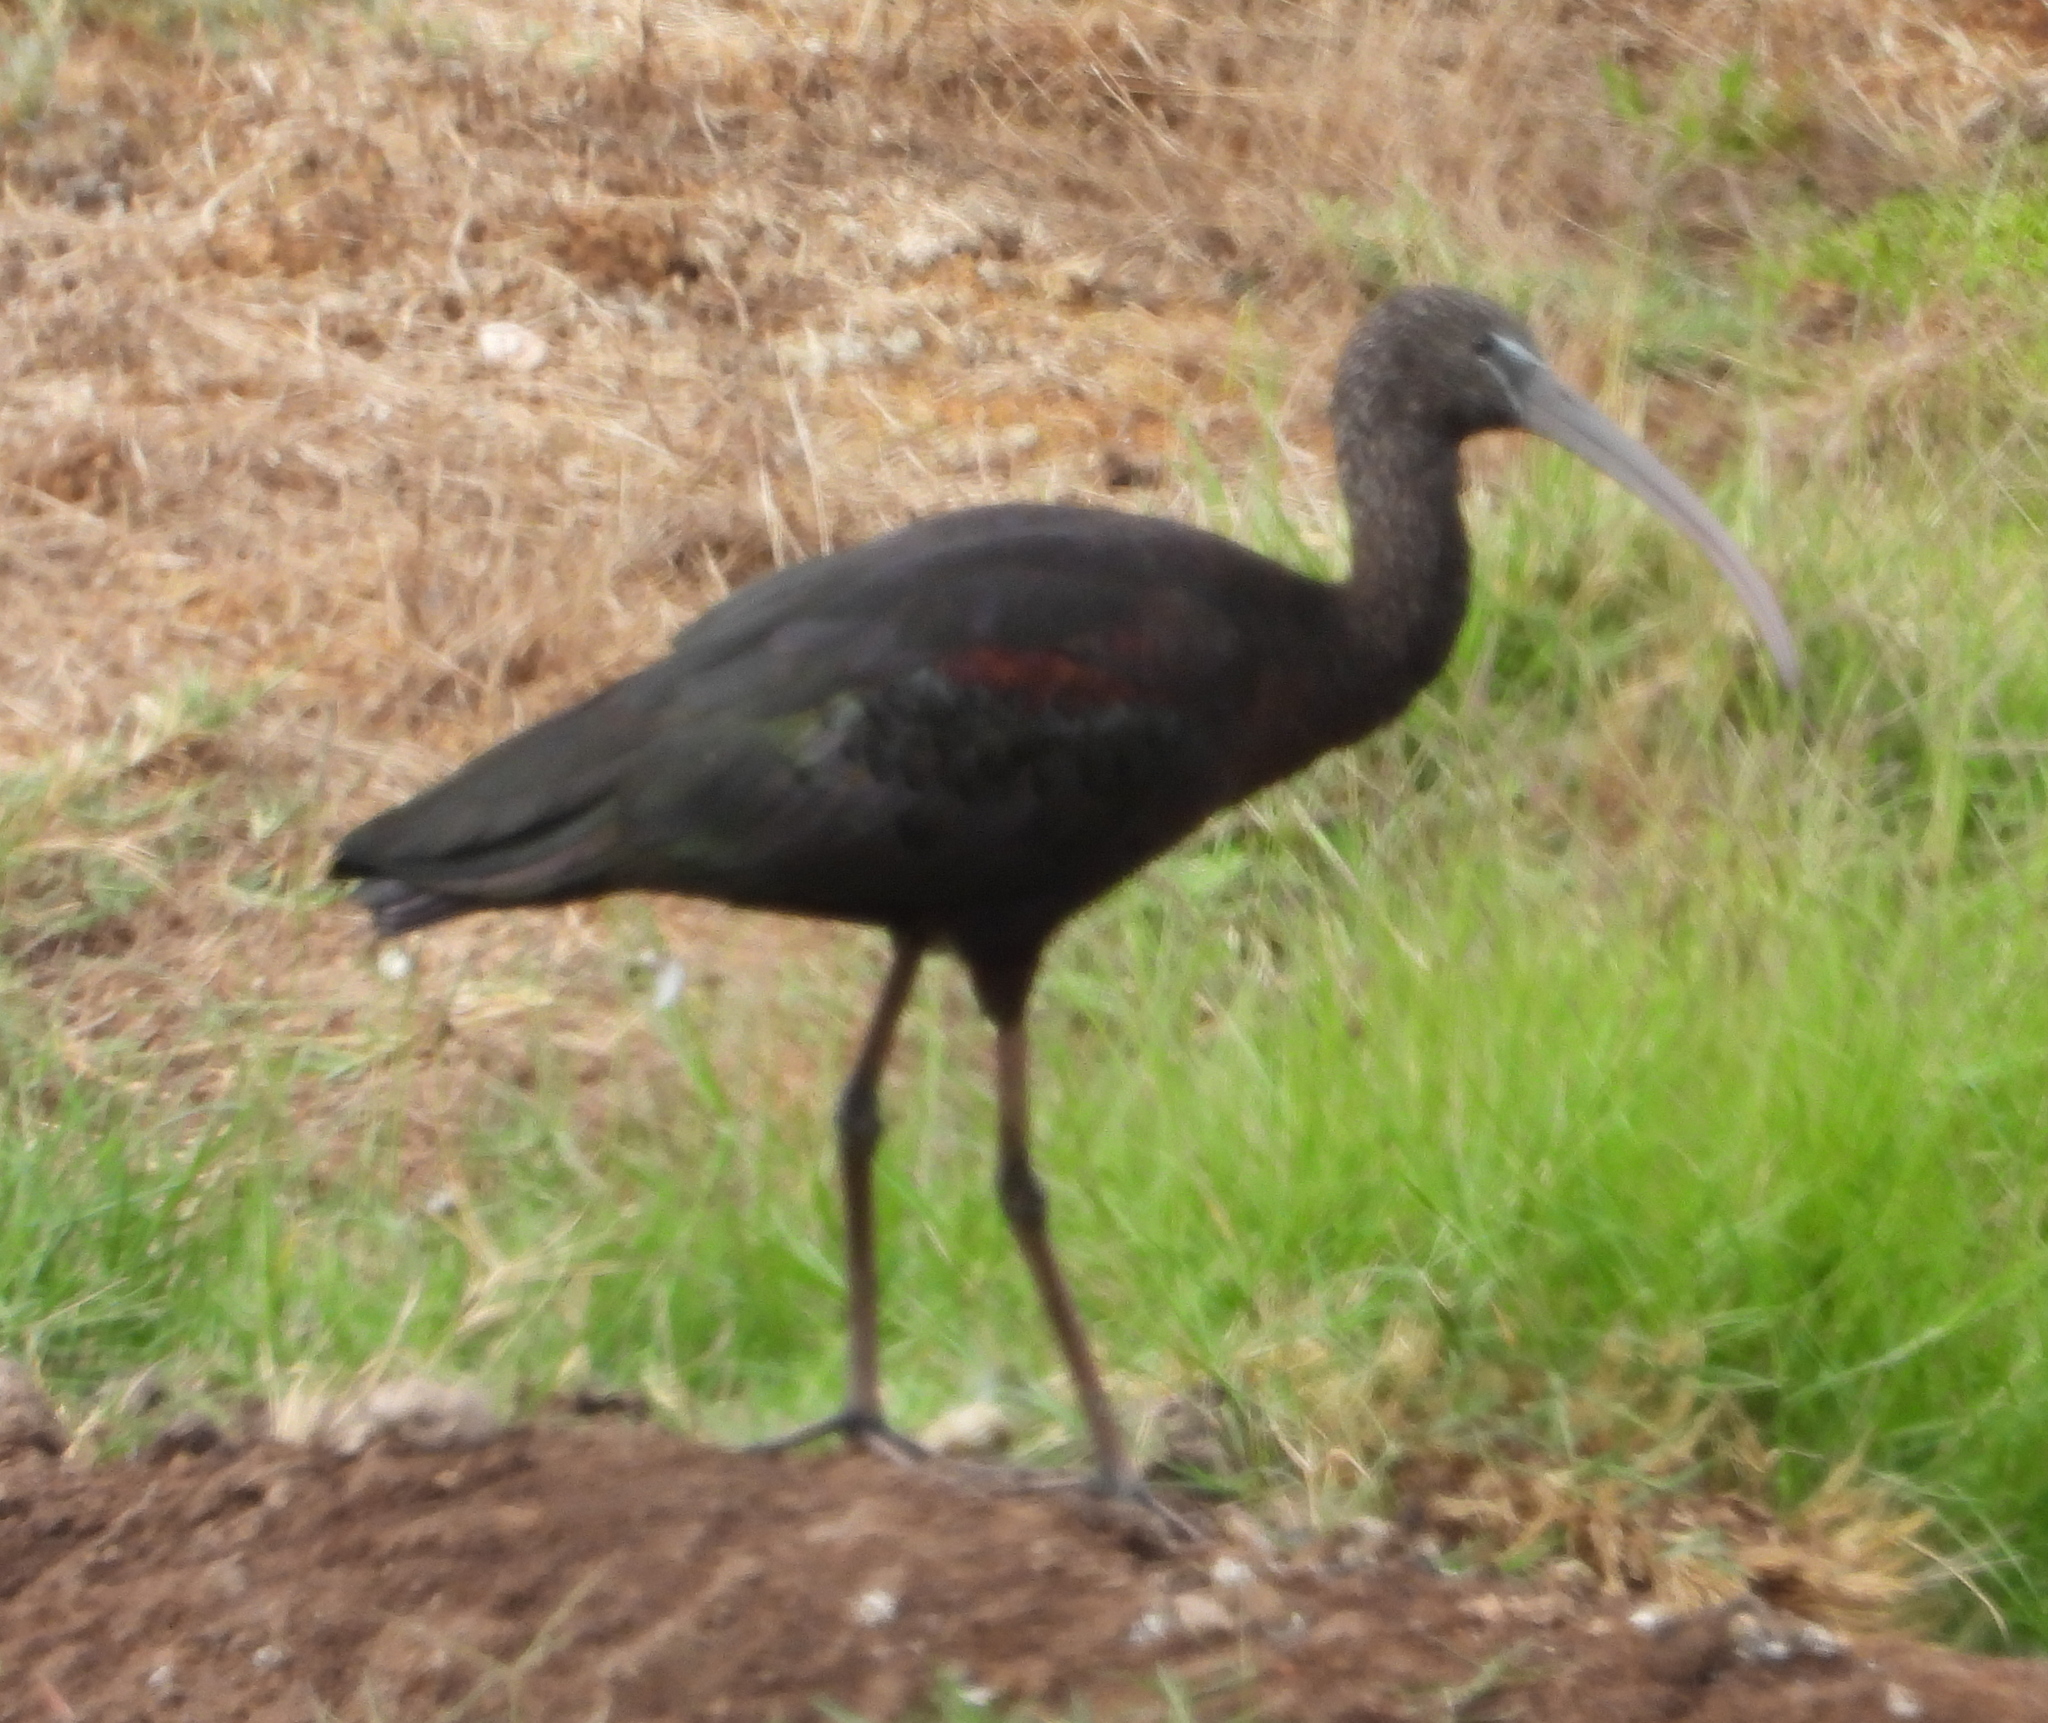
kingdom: Animalia
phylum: Chordata
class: Aves
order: Pelecaniformes
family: Threskiornithidae
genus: Plegadis
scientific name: Plegadis falcinellus
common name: Glossy ibis
